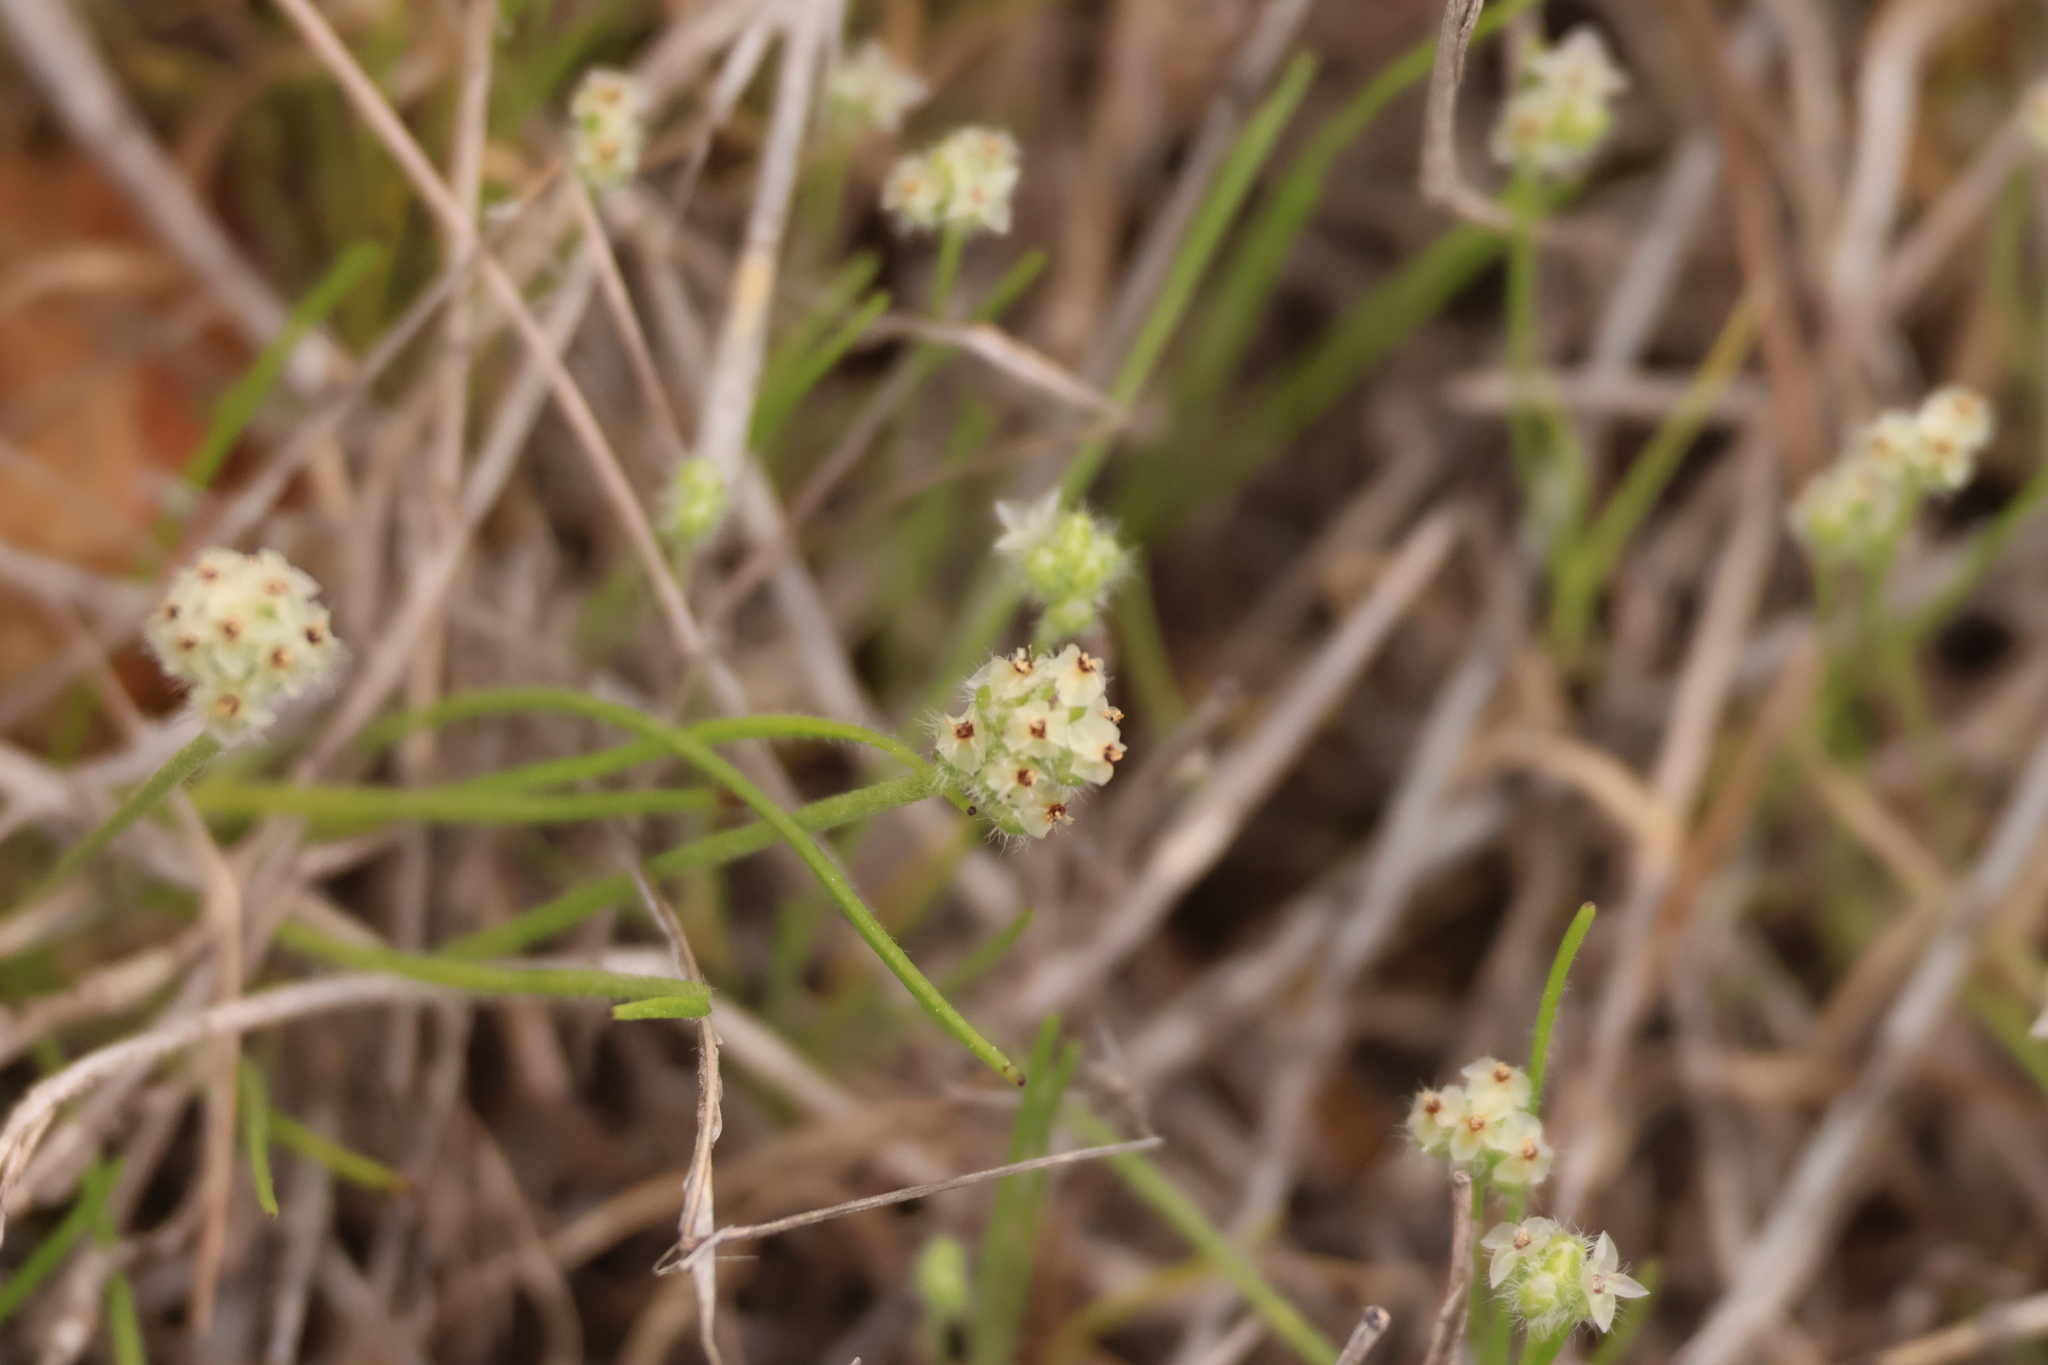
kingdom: Plantae
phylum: Tracheophyta
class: Magnoliopsida
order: Lamiales
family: Plantaginaceae
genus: Plantago
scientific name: Plantago erecta
